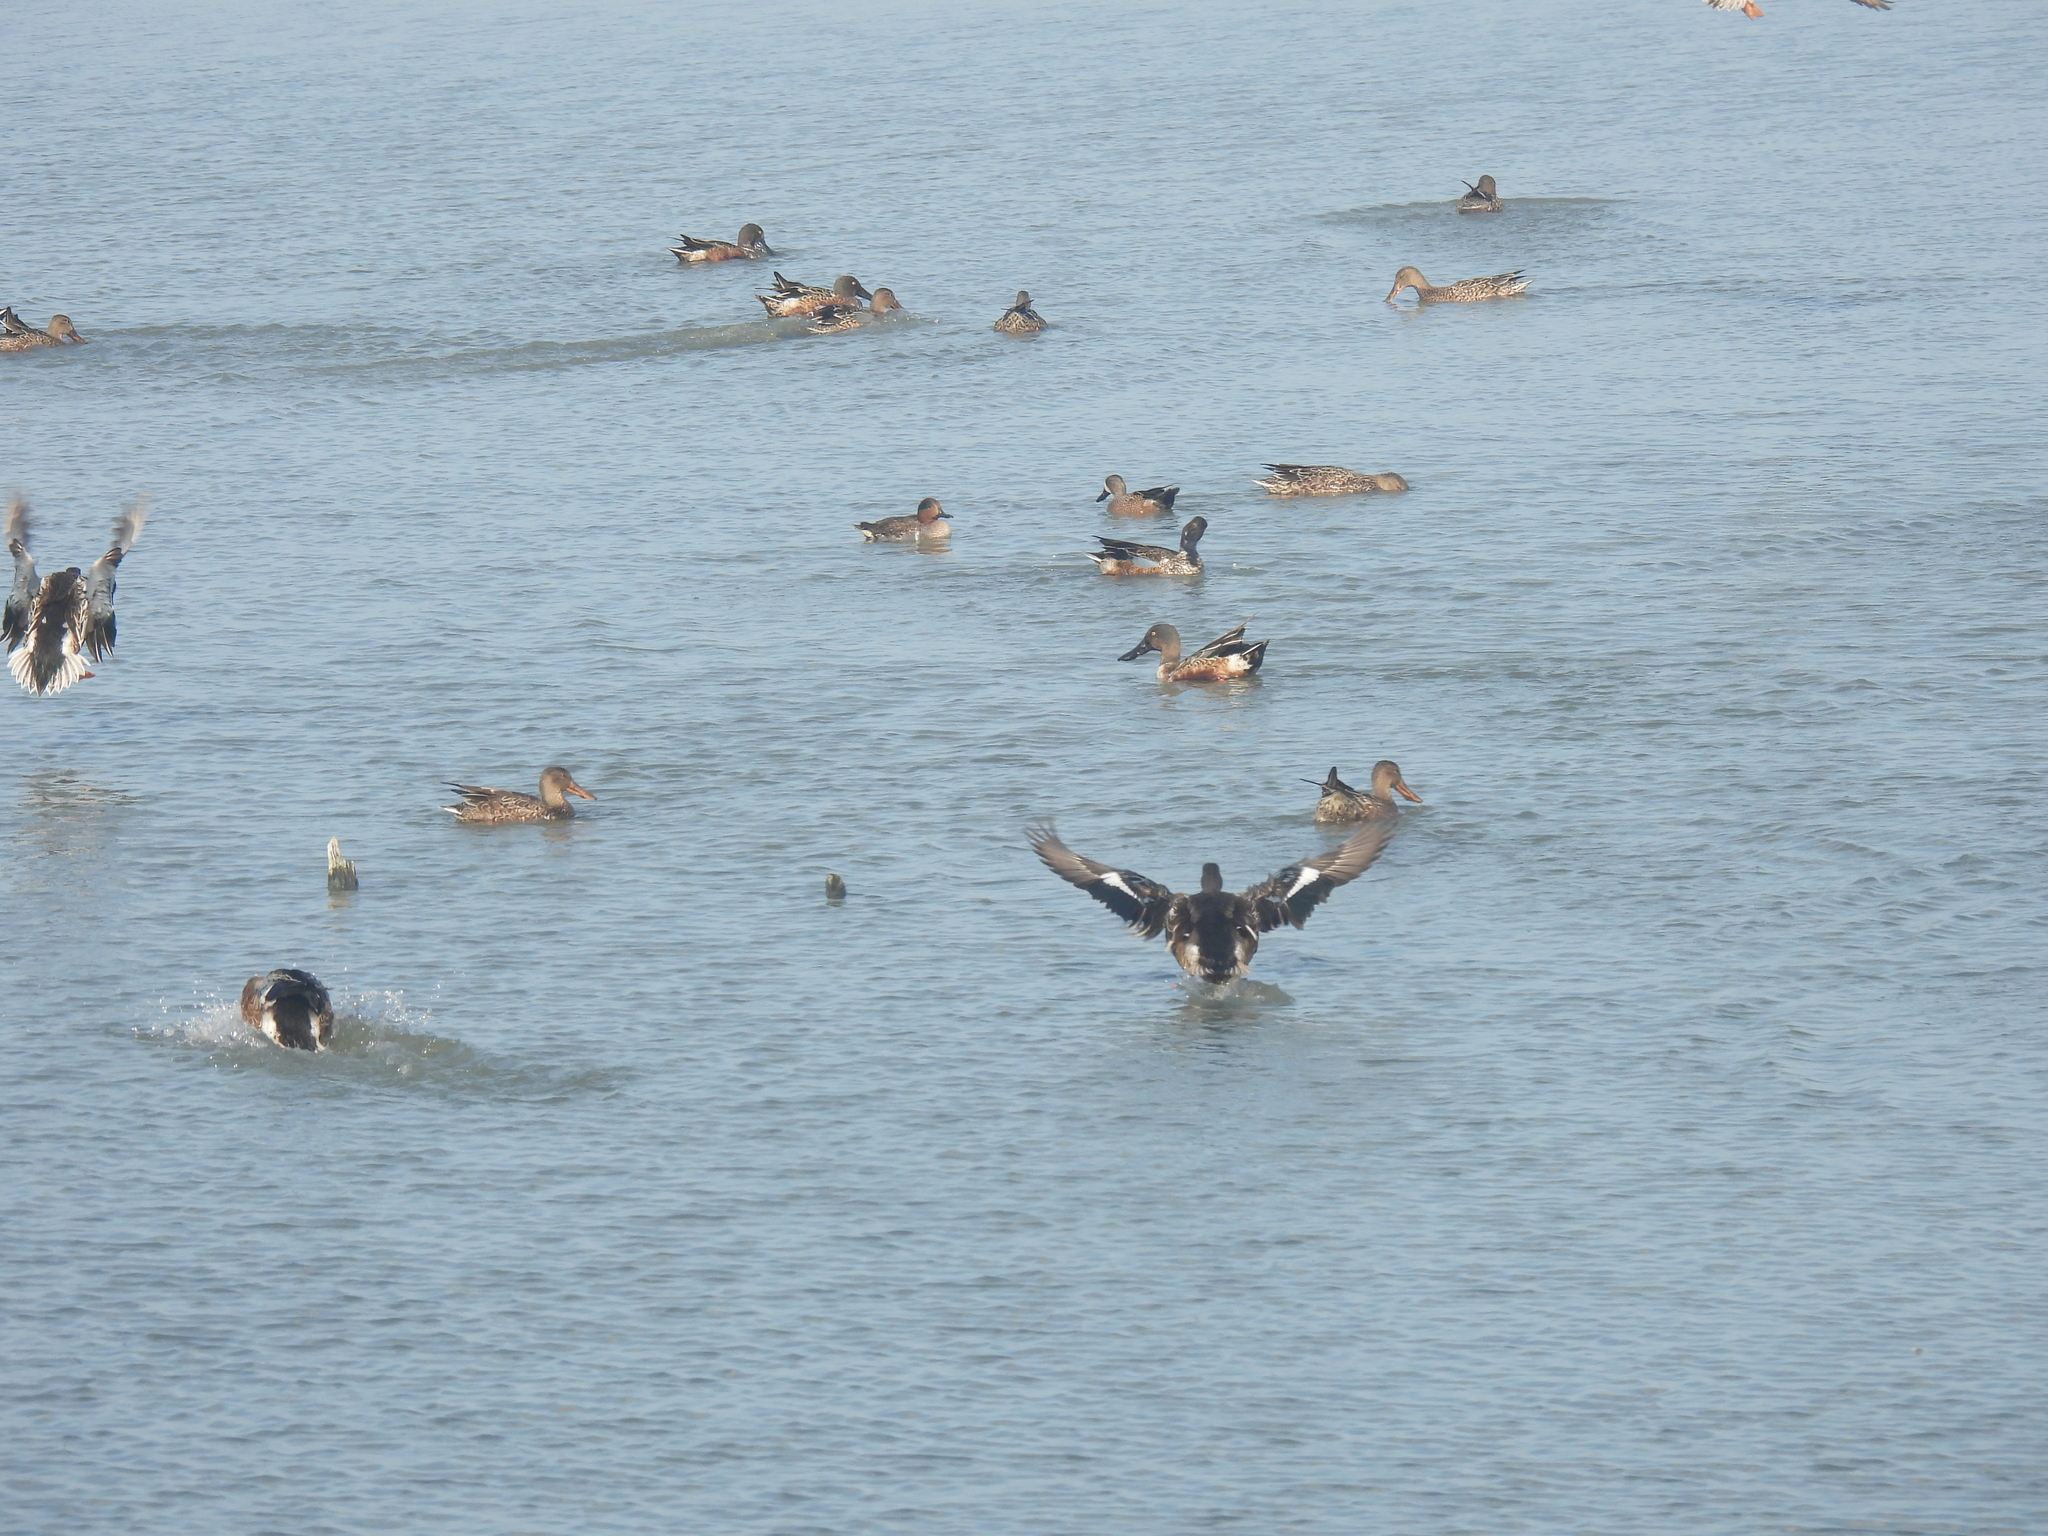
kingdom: Animalia
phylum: Chordata
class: Aves
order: Anseriformes
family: Anatidae
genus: Spatula
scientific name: Spatula clypeata
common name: Northern shoveler
